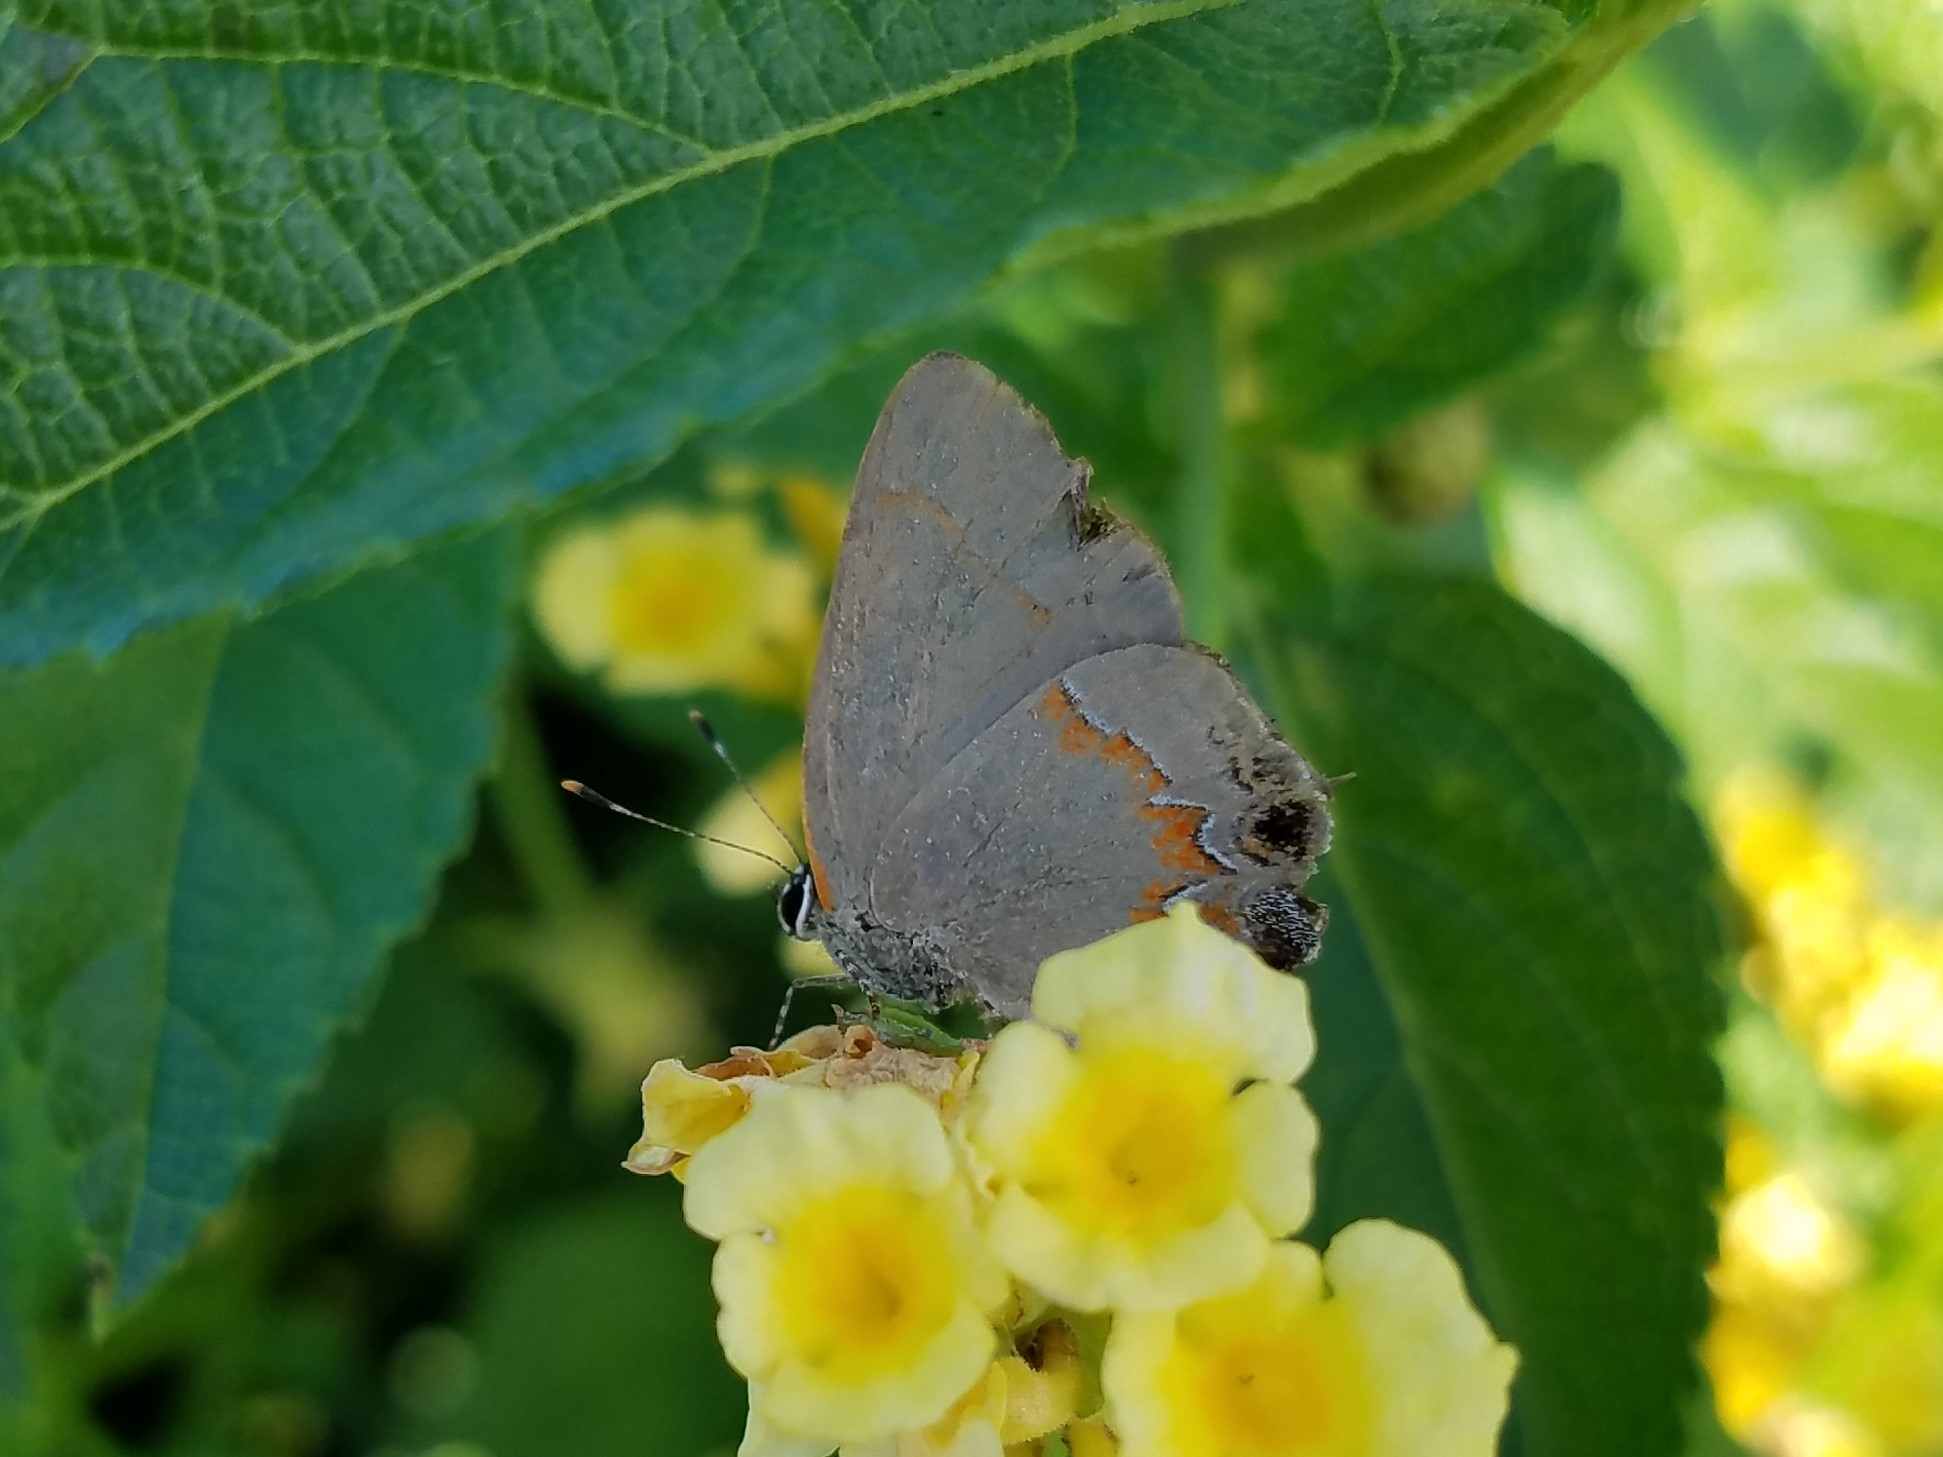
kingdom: Animalia
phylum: Arthropoda
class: Insecta
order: Lepidoptera
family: Lycaenidae
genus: Calycopis
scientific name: Calycopis cecrops
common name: Red-banded hairstreak
